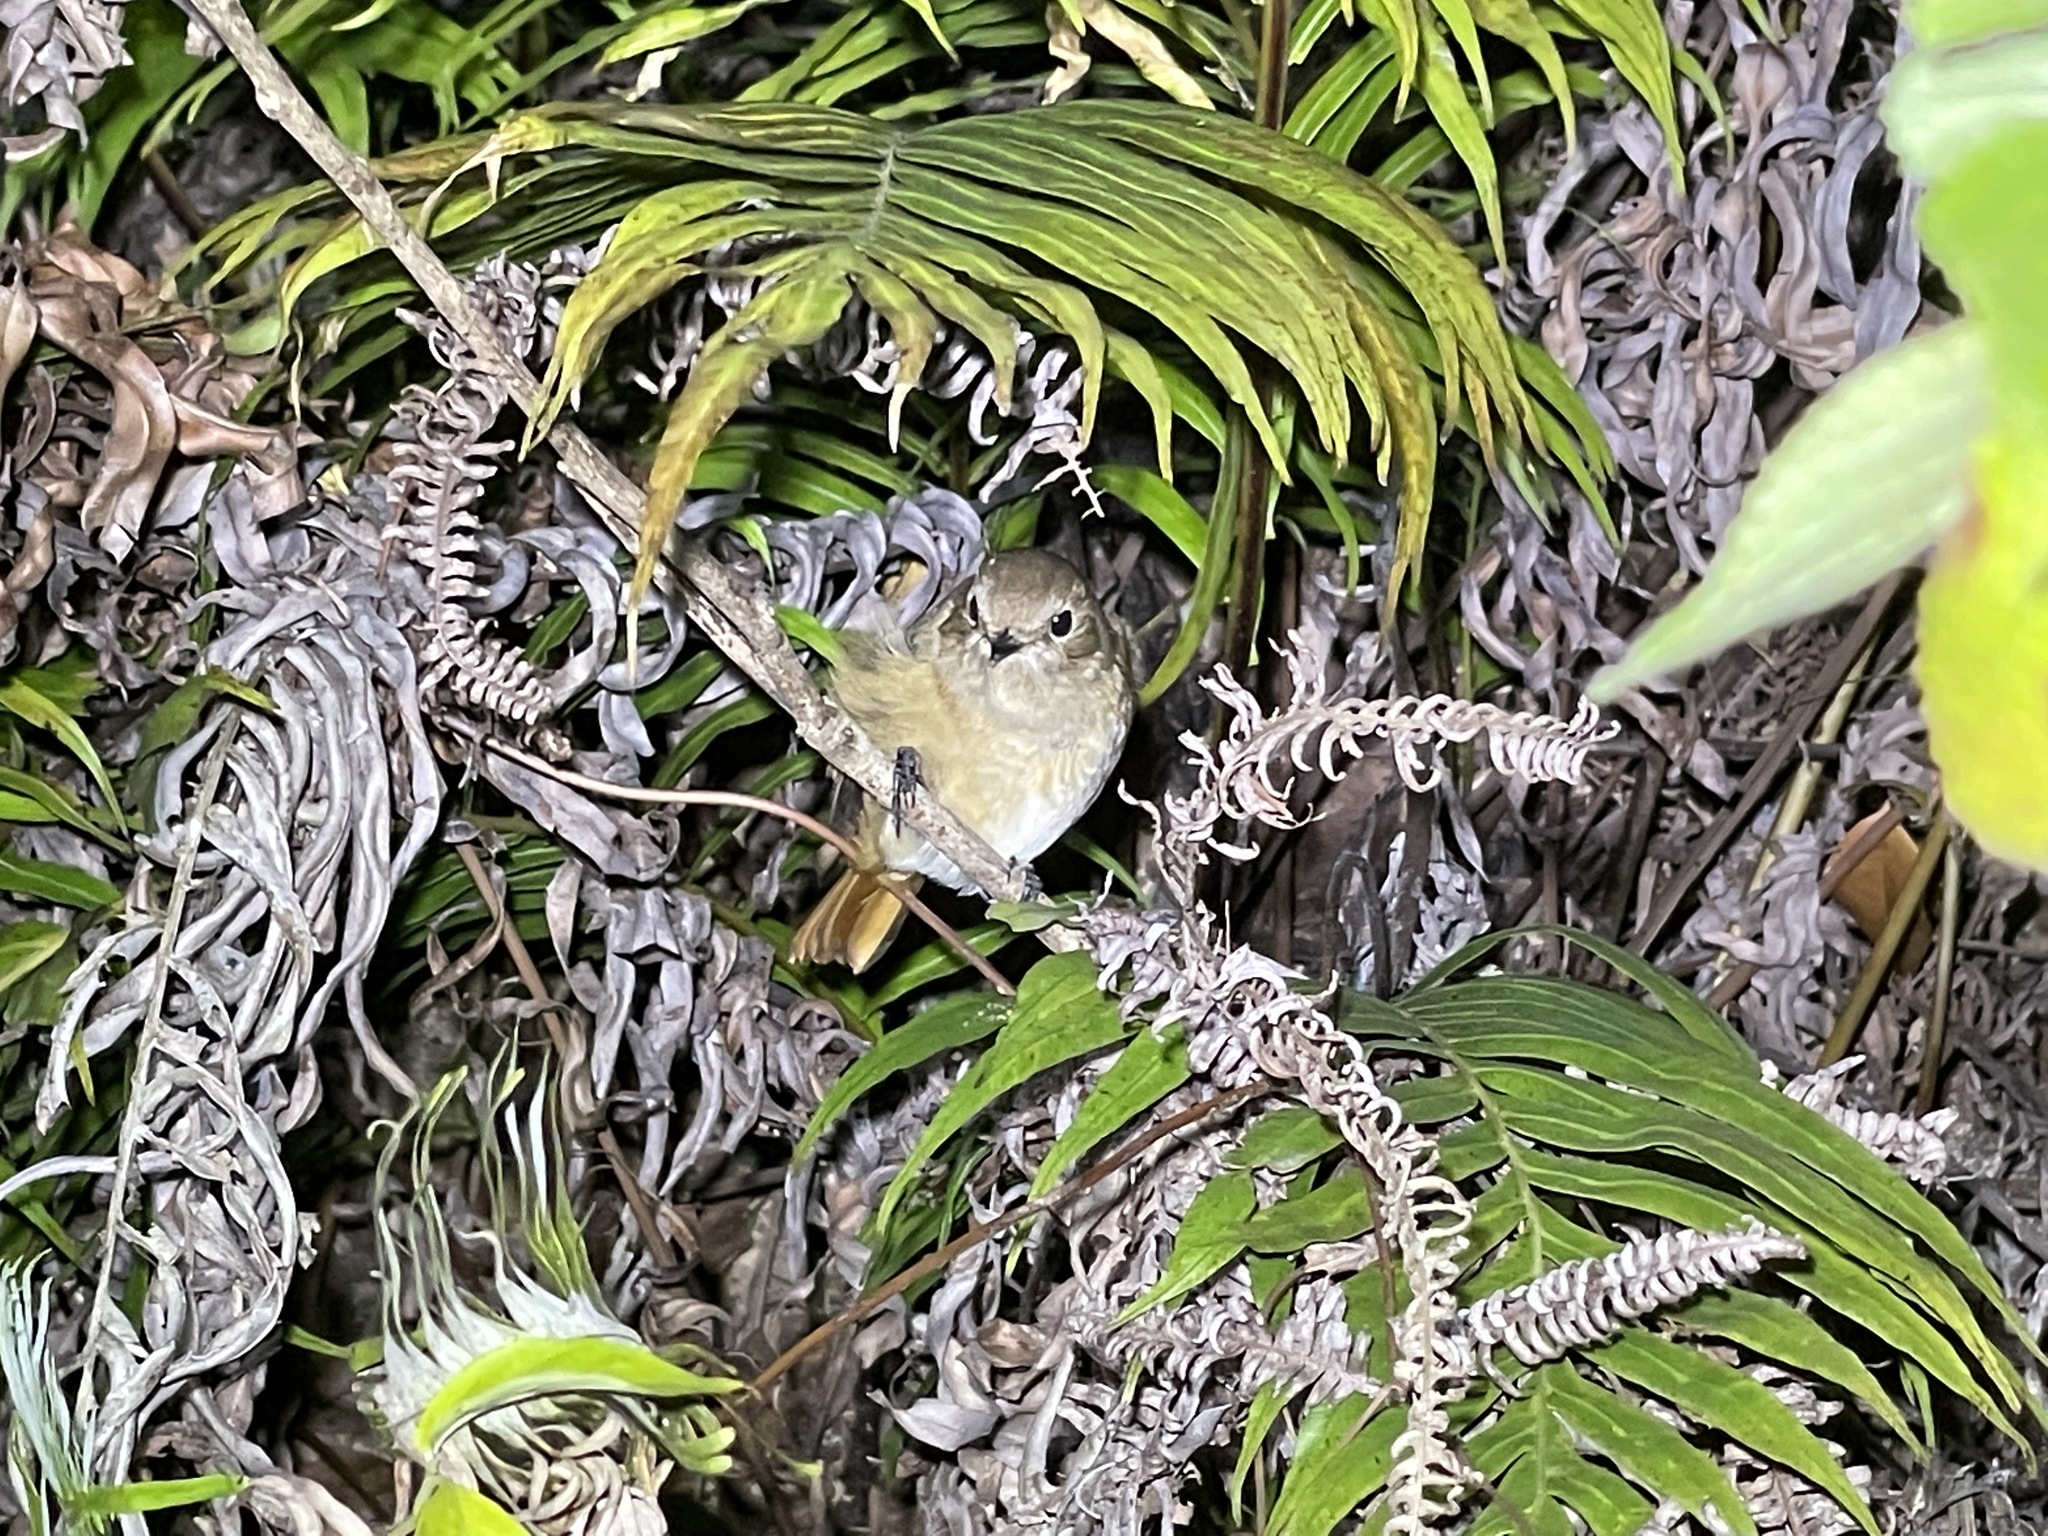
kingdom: Animalia
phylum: Chordata
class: Aves
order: Passeriformes
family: Muscicapidae
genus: Phoenicurus
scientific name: Phoenicurus auroreus
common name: Daurian redstart
